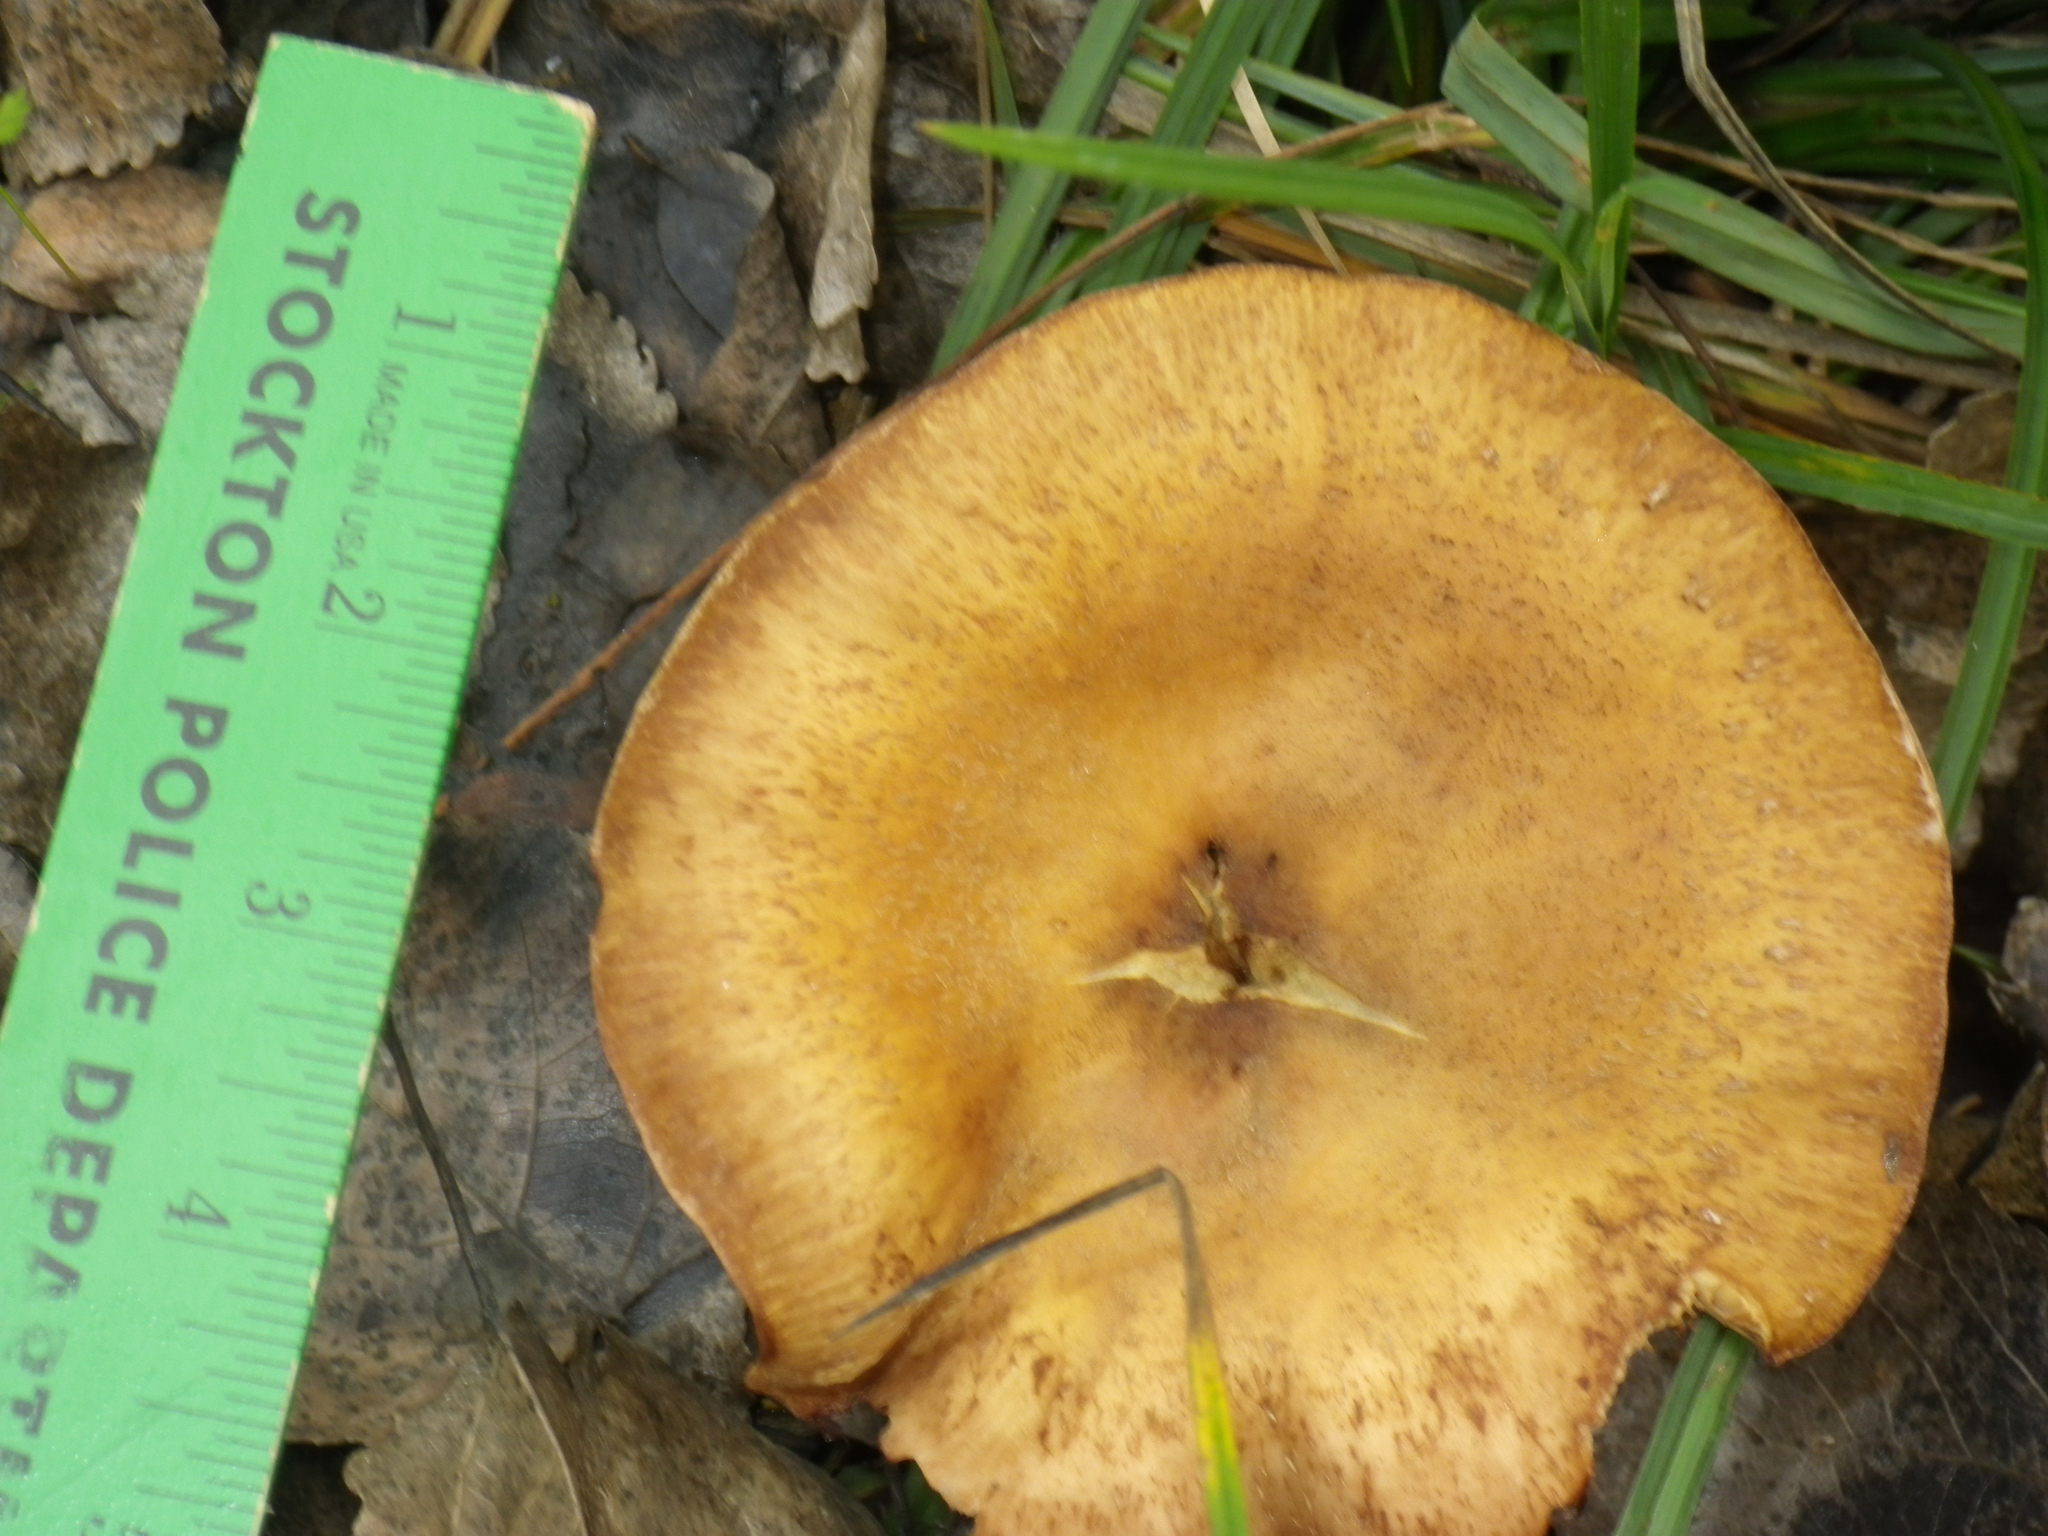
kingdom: Fungi
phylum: Basidiomycota
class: Agaricomycetes
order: Agaricales
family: Physalacriaceae
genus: Armillaria
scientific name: Armillaria mellea
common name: Honey fungus
